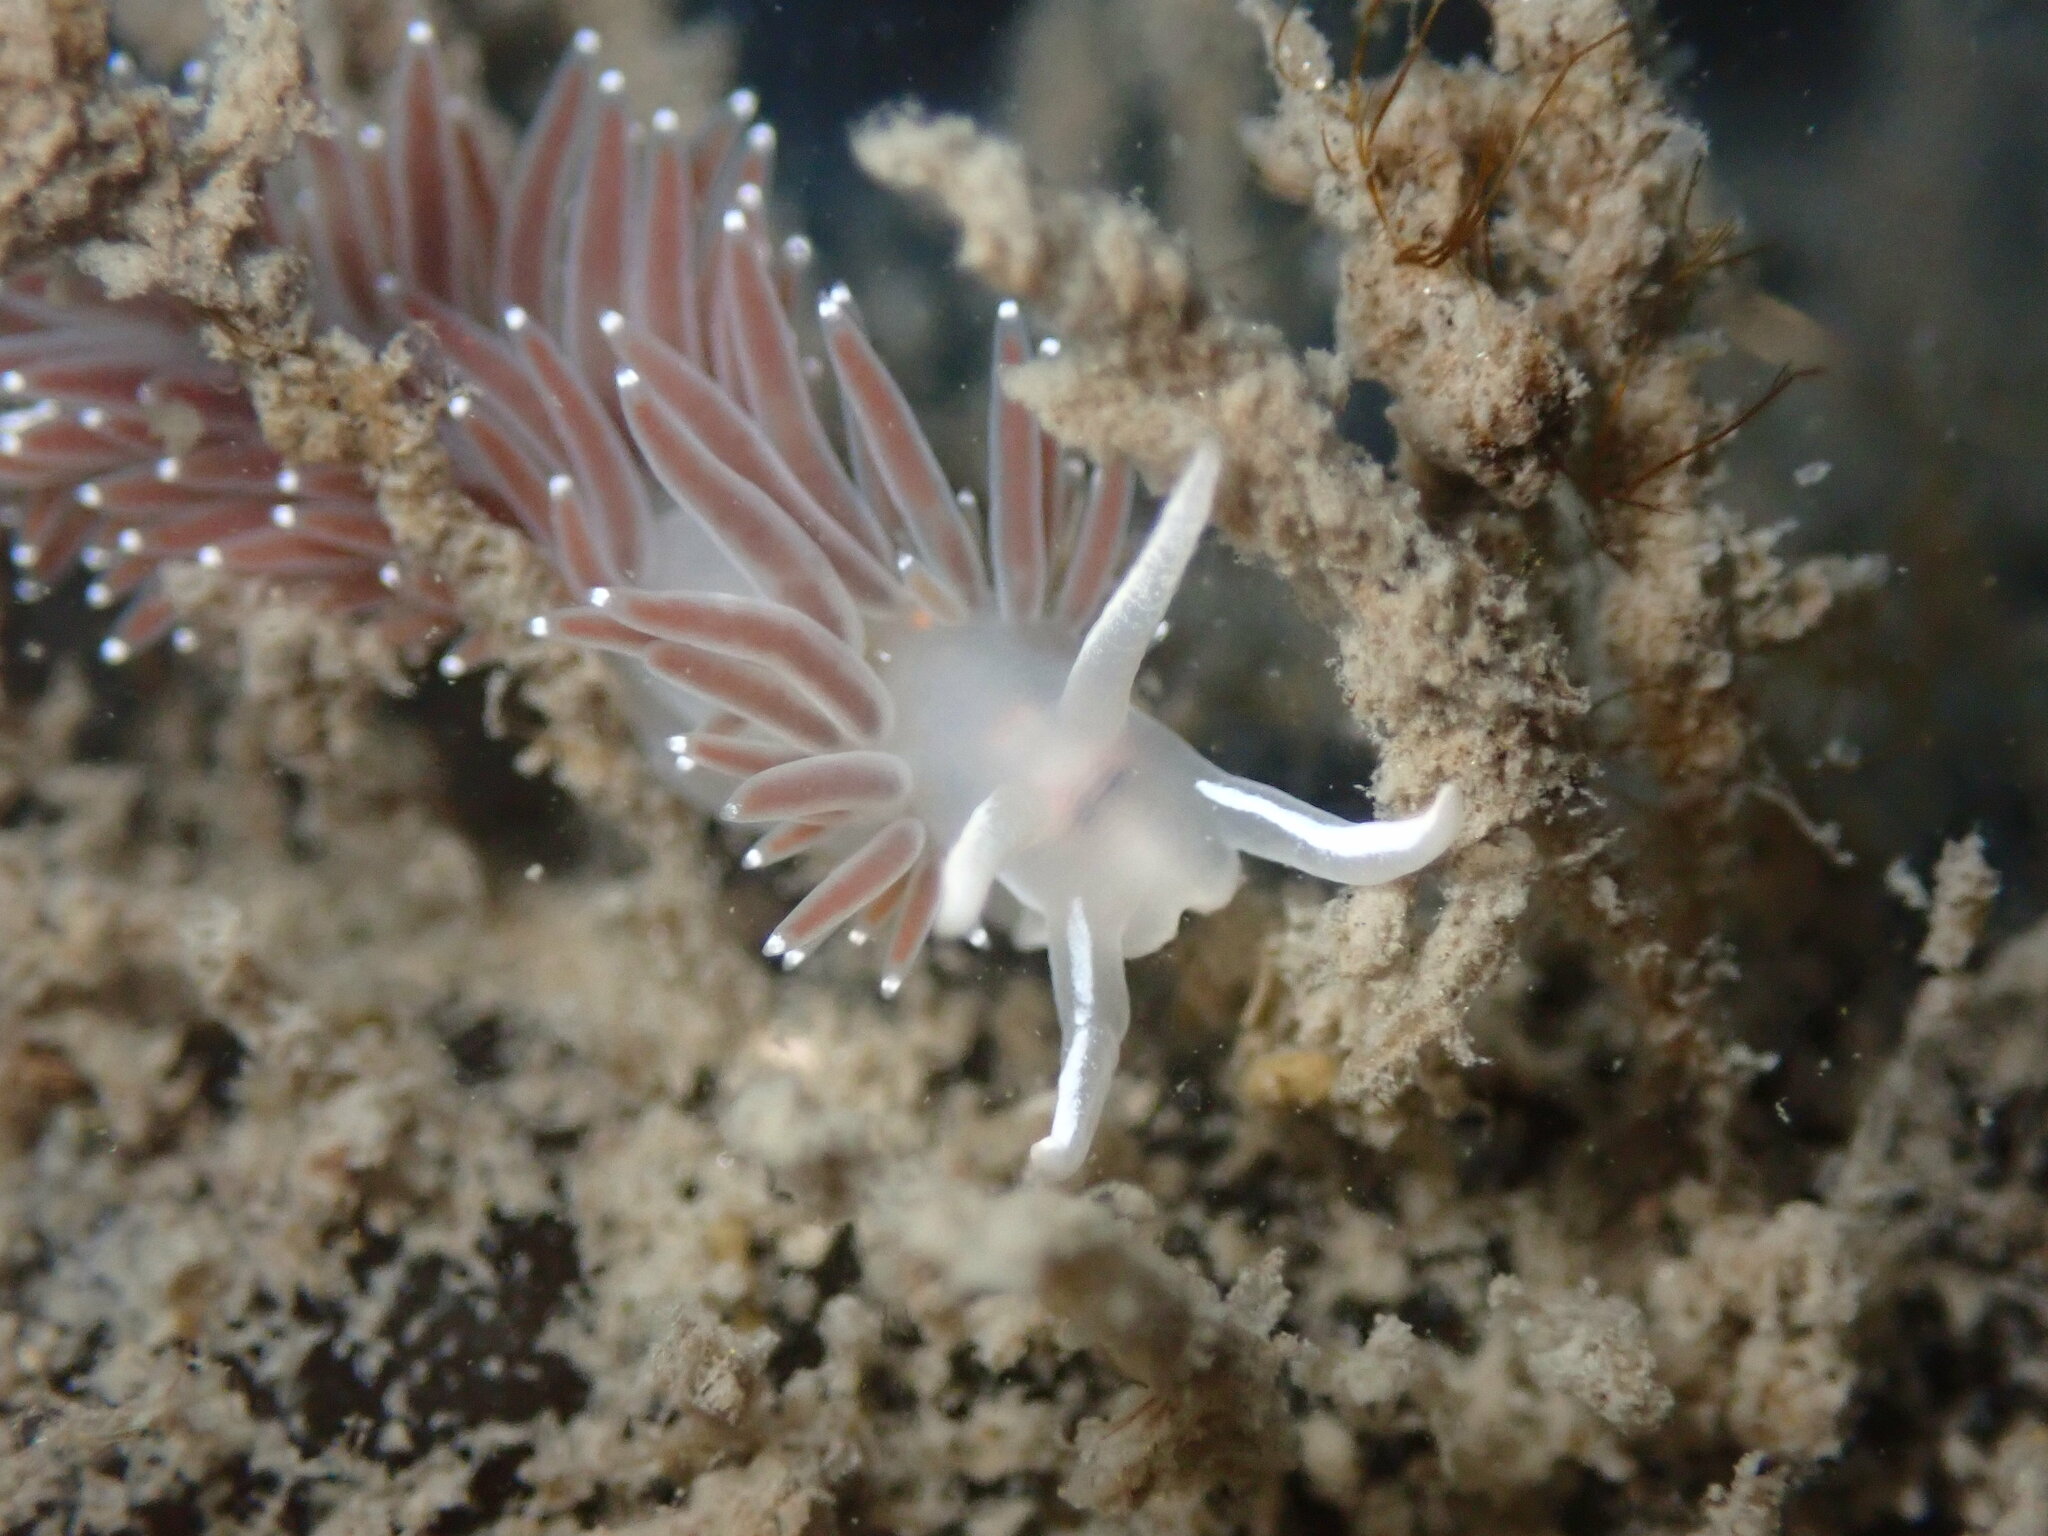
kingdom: Animalia
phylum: Mollusca
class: Gastropoda
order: Nudibranchia
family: Coryphellidae
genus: Coryphella
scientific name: Coryphella verrucosa
